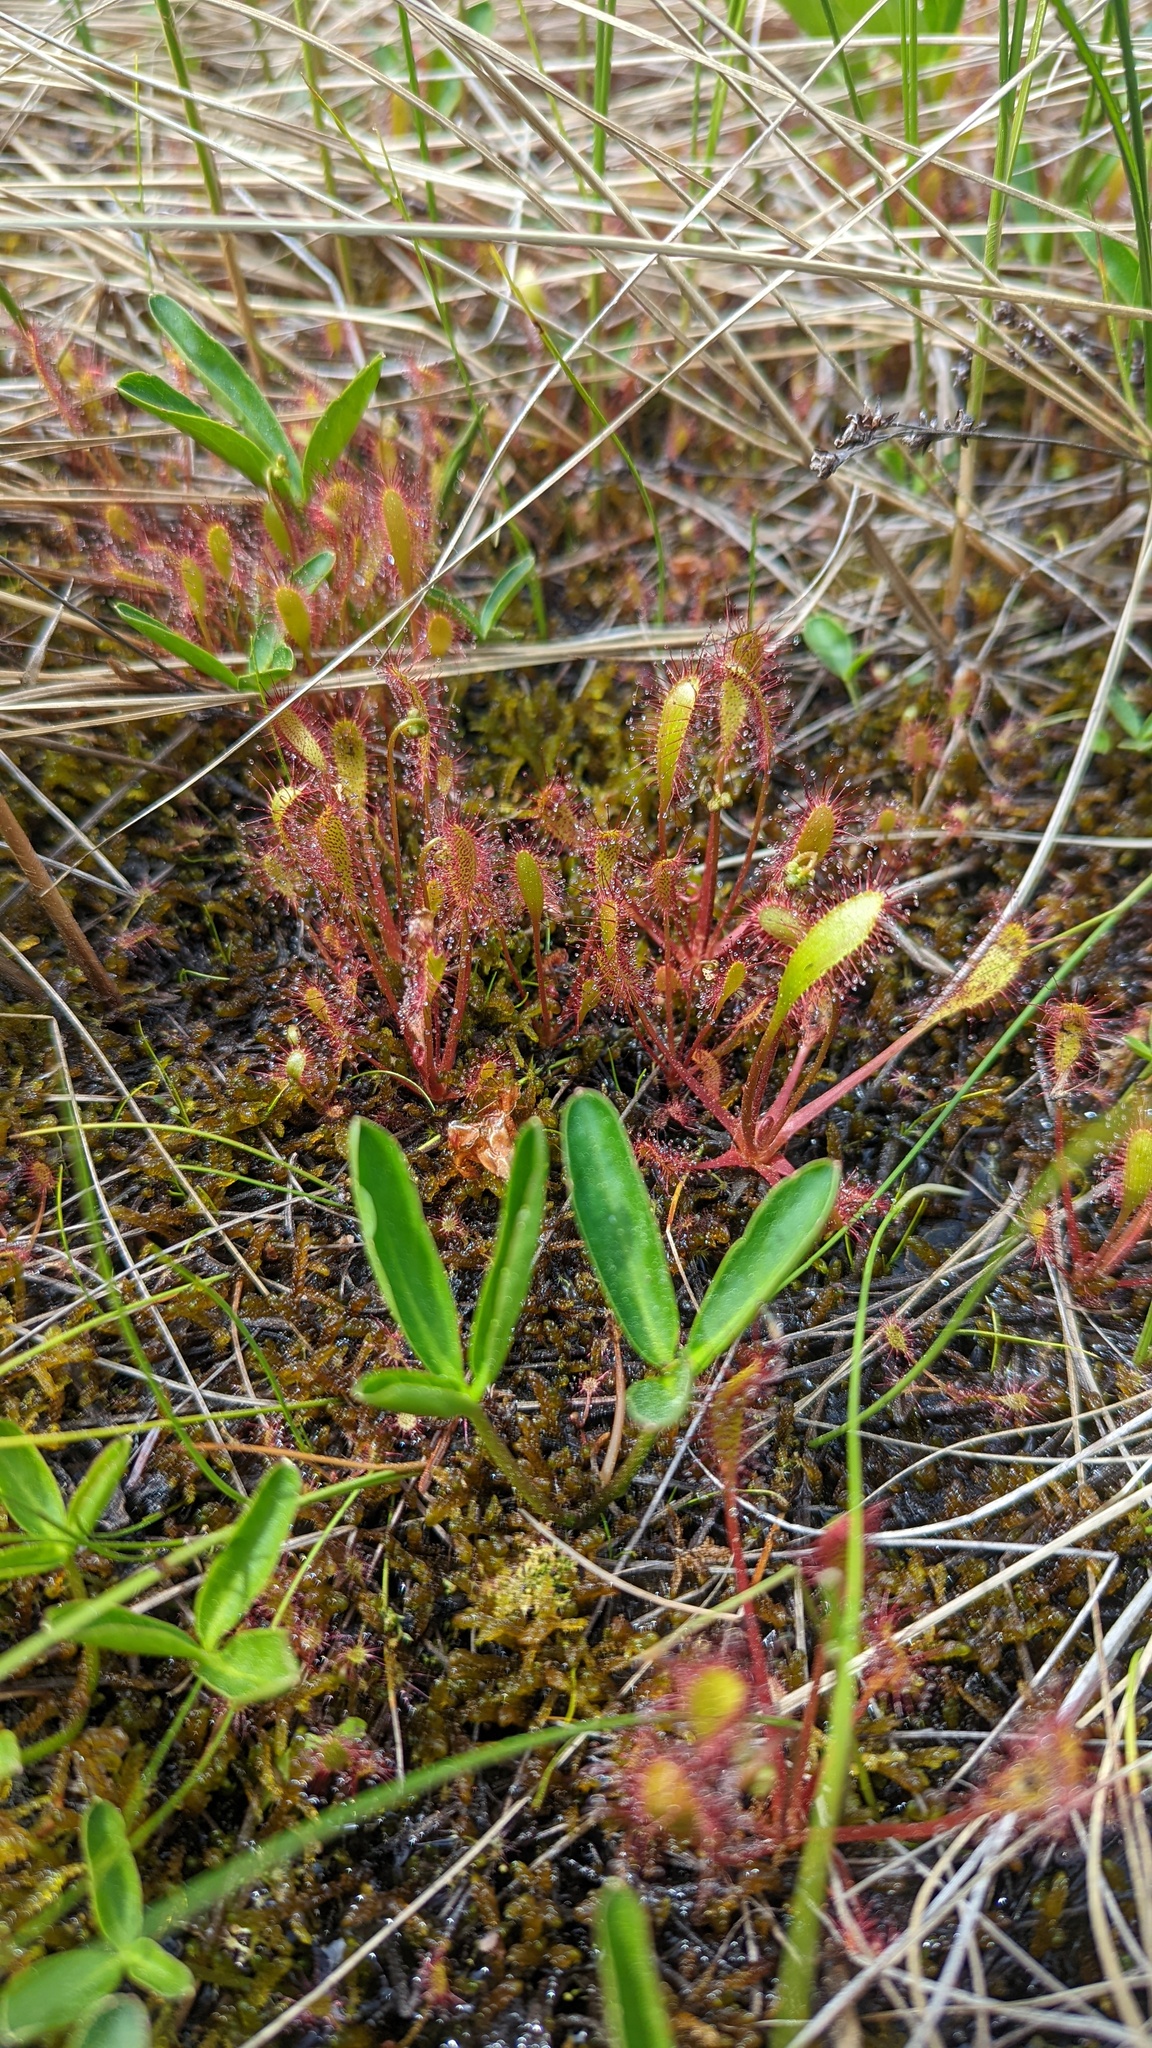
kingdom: Plantae
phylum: Tracheophyta
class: Magnoliopsida
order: Caryophyllales
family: Droseraceae
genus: Drosera
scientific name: Drosera anglica
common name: Great sundew
